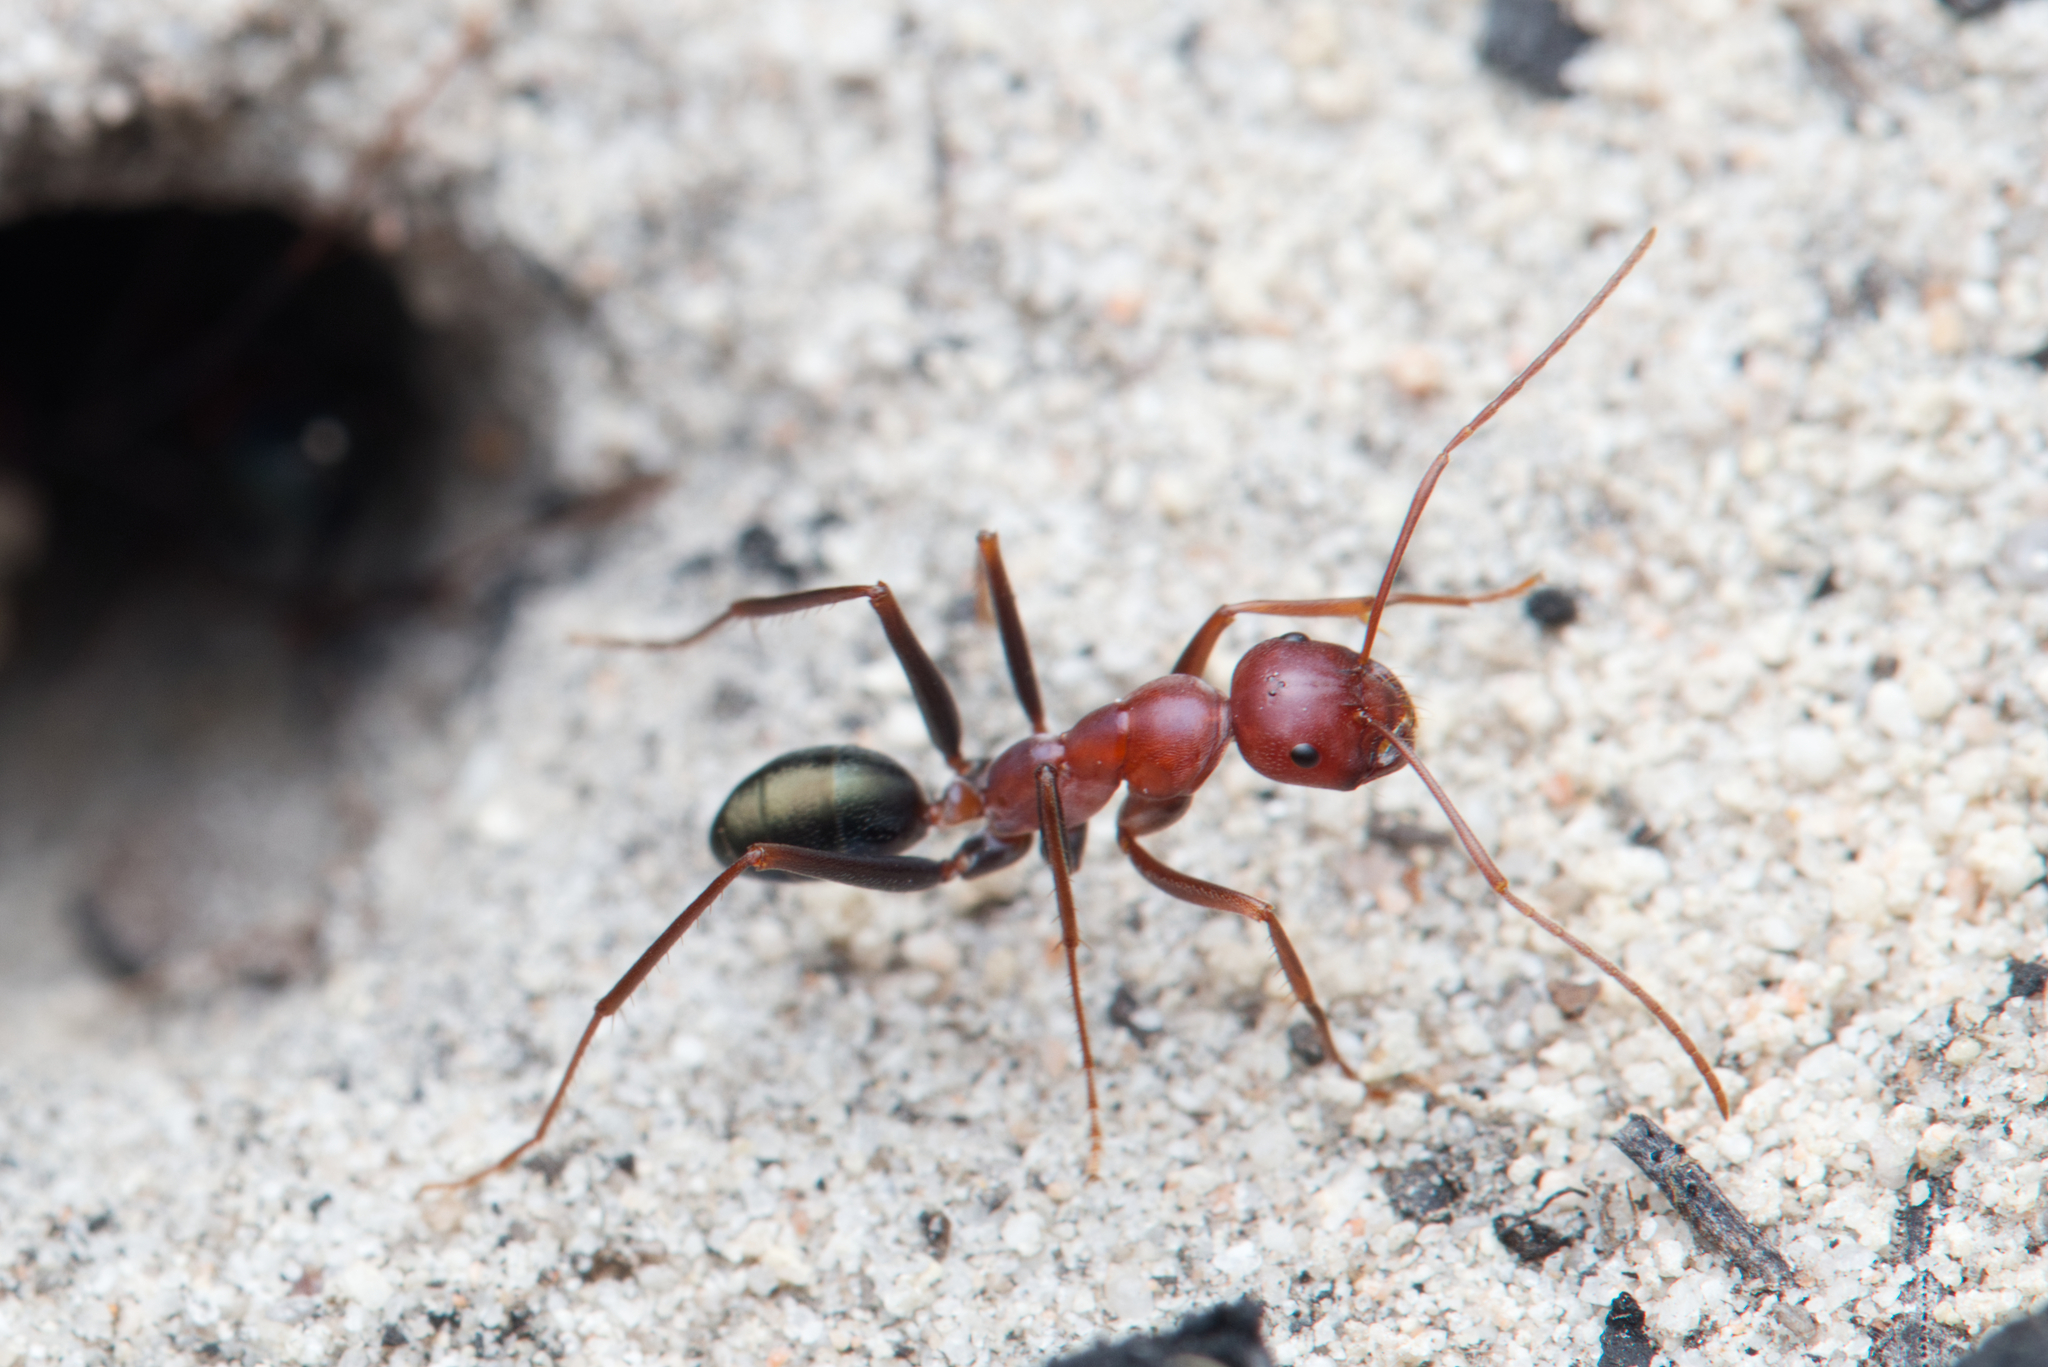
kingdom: Animalia
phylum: Arthropoda
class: Insecta
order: Hymenoptera
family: Formicidae
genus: Melophorus
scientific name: Melophorus rufoniger
